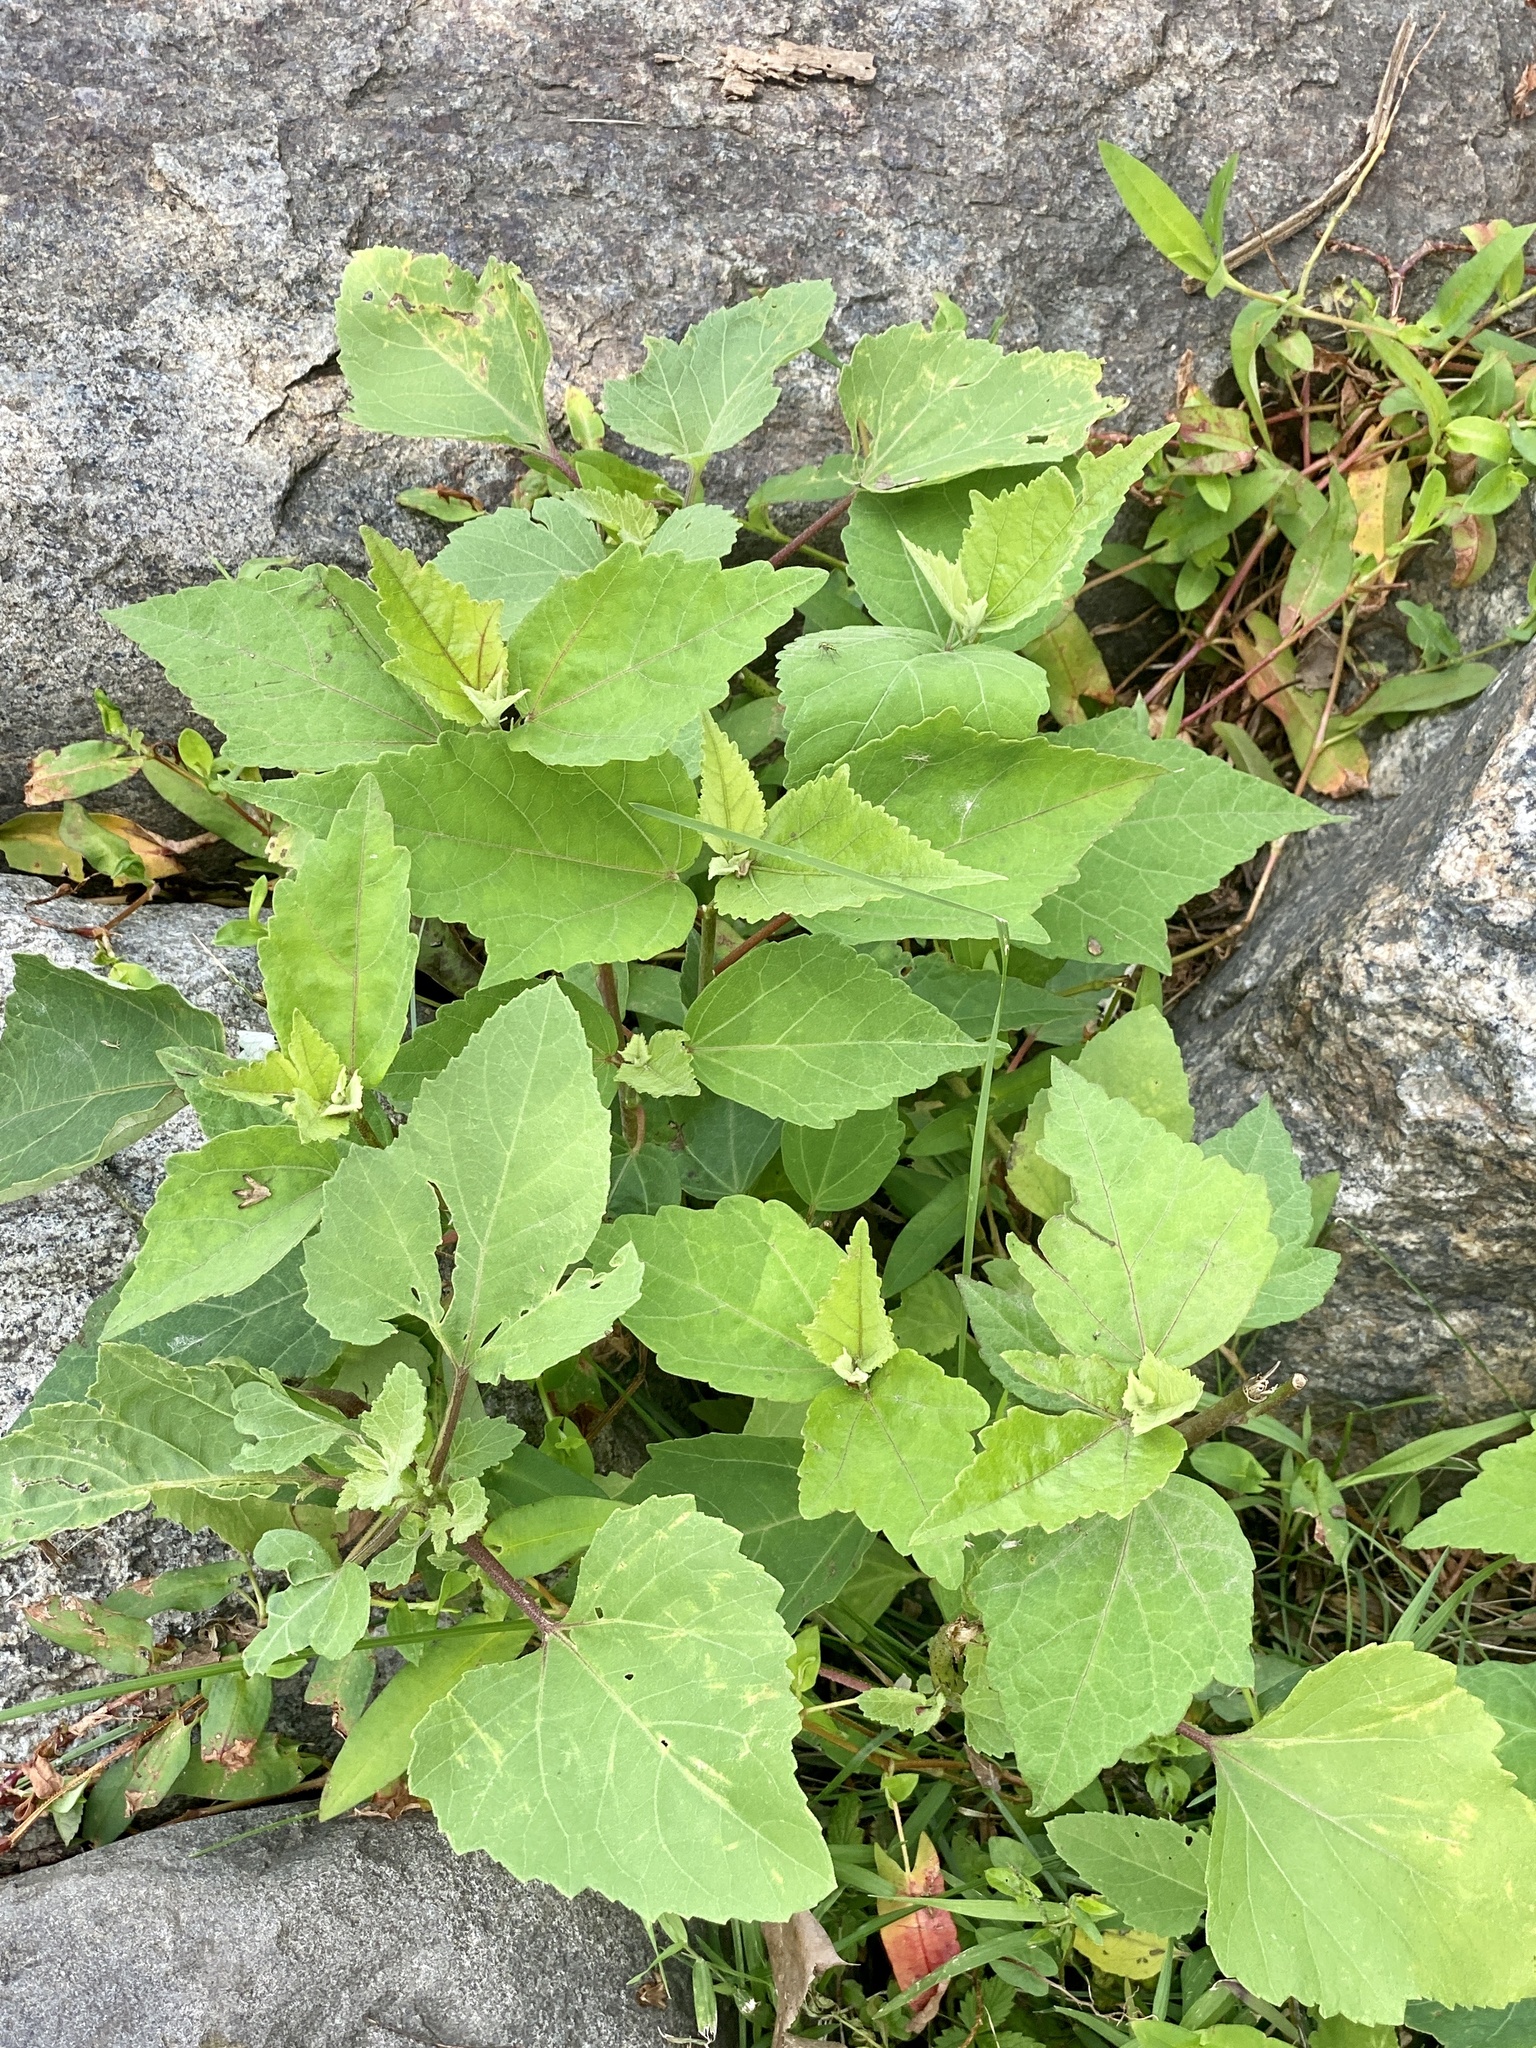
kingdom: Plantae
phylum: Tracheophyta
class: Magnoliopsida
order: Asterales
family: Asteraceae
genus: Xanthium
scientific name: Xanthium strumarium
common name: Rough cocklebur
